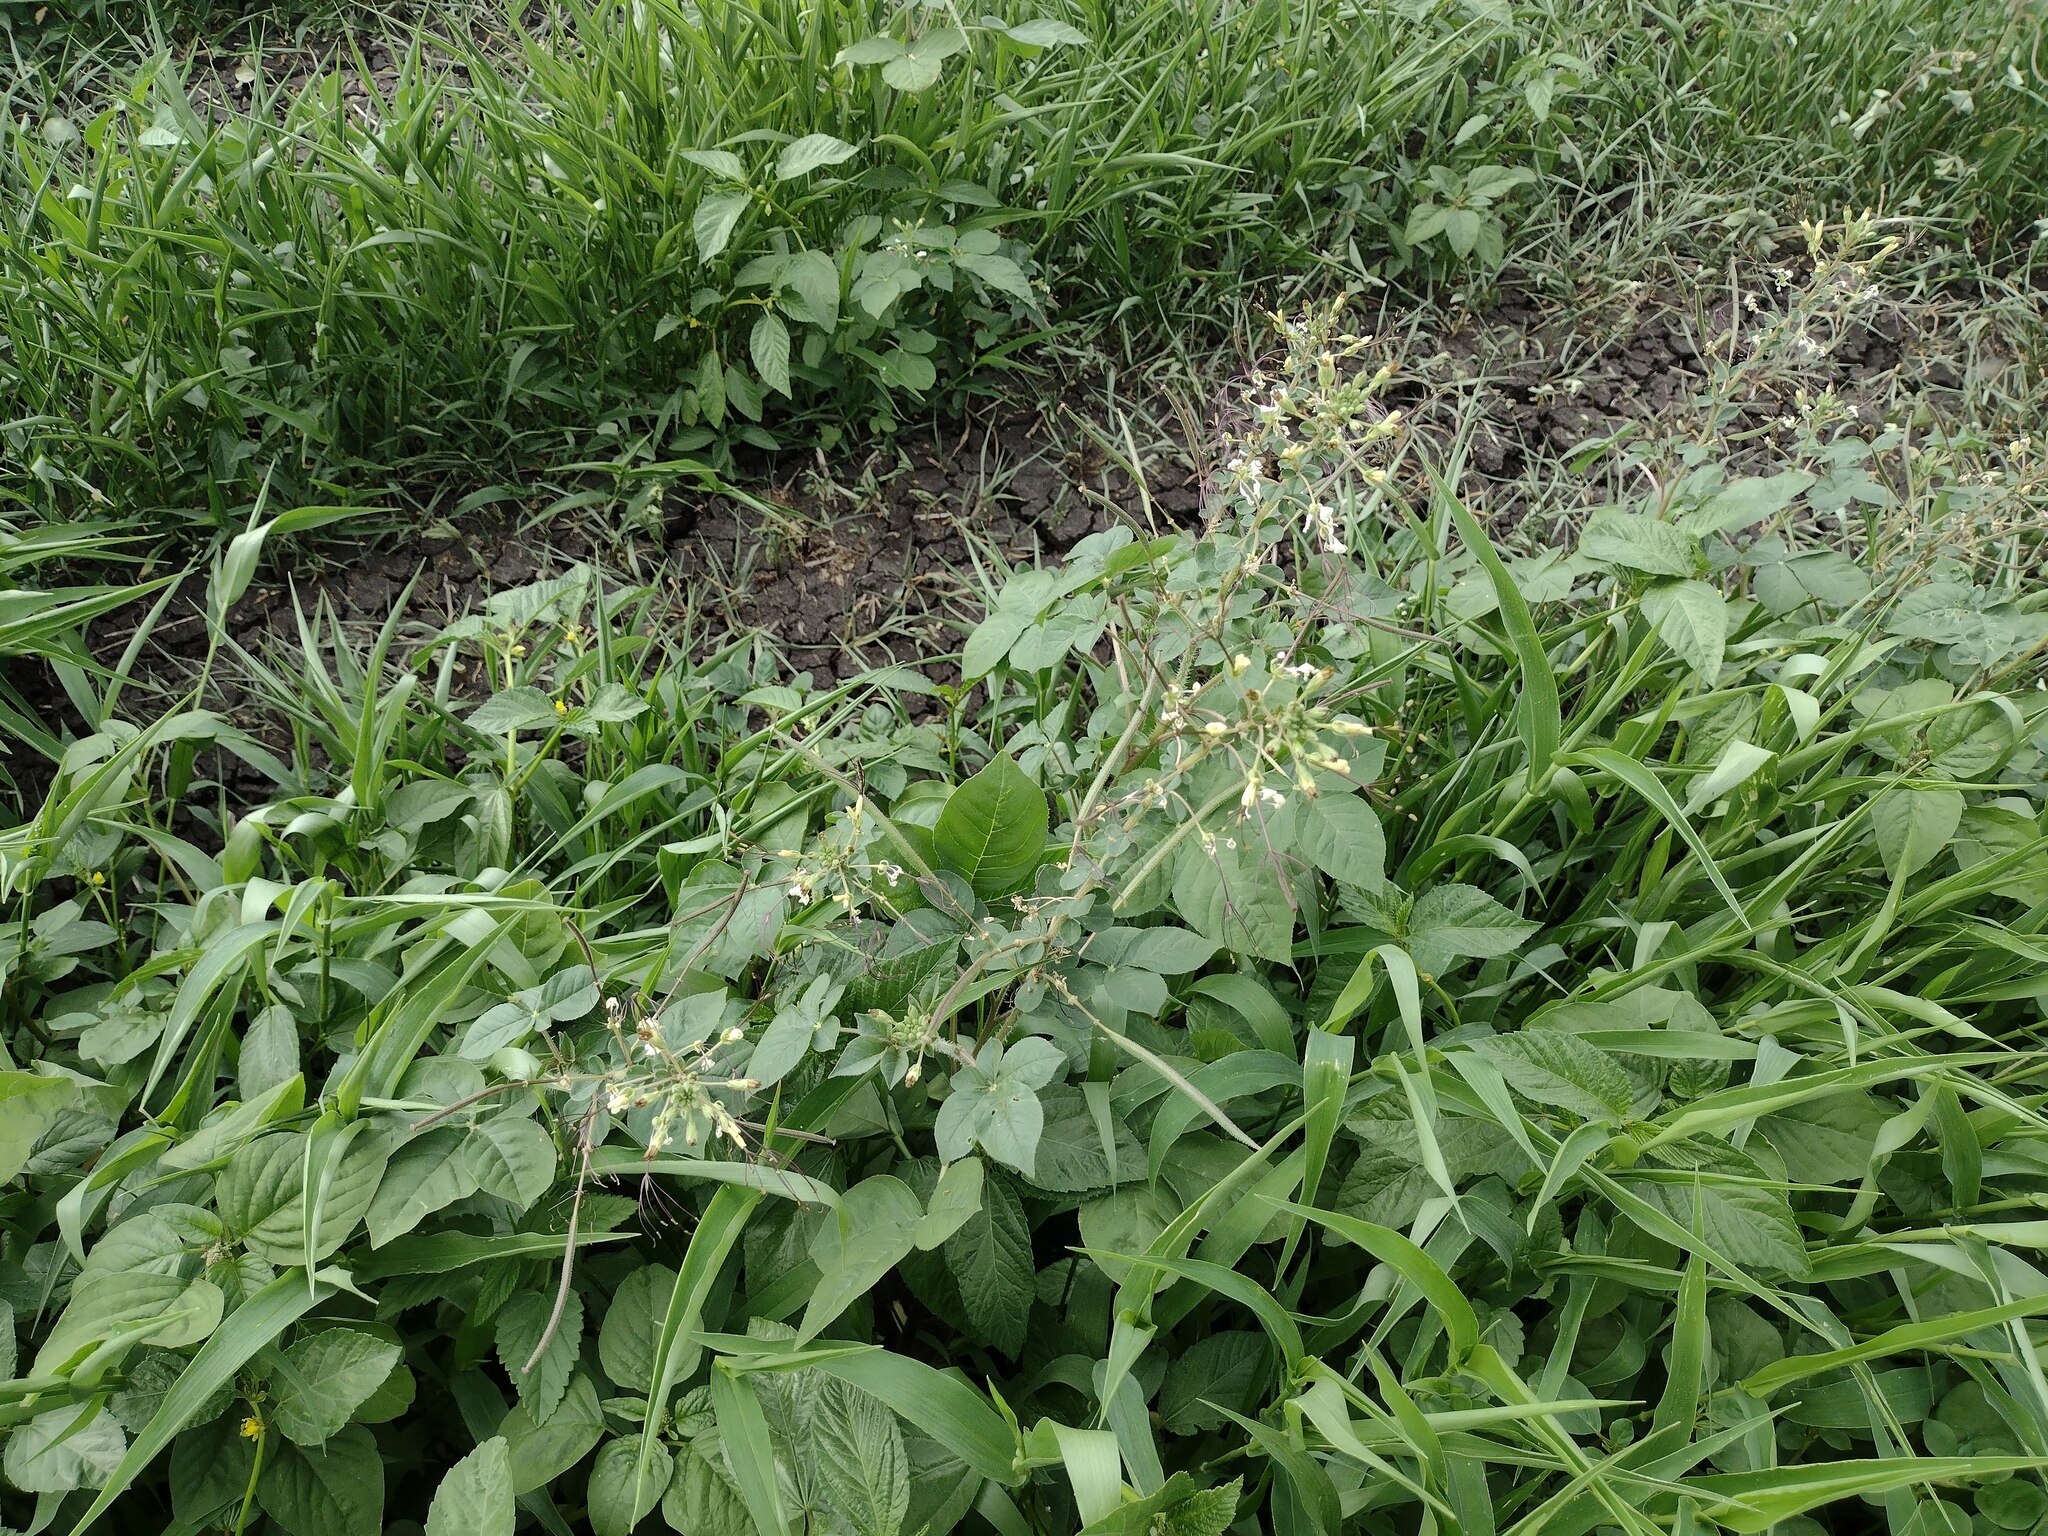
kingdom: Plantae
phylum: Tracheophyta
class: Magnoliopsida
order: Brassicales
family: Cleomaceae
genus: Gynandropsis
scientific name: Gynandropsis gynandra
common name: Spiderwisp
